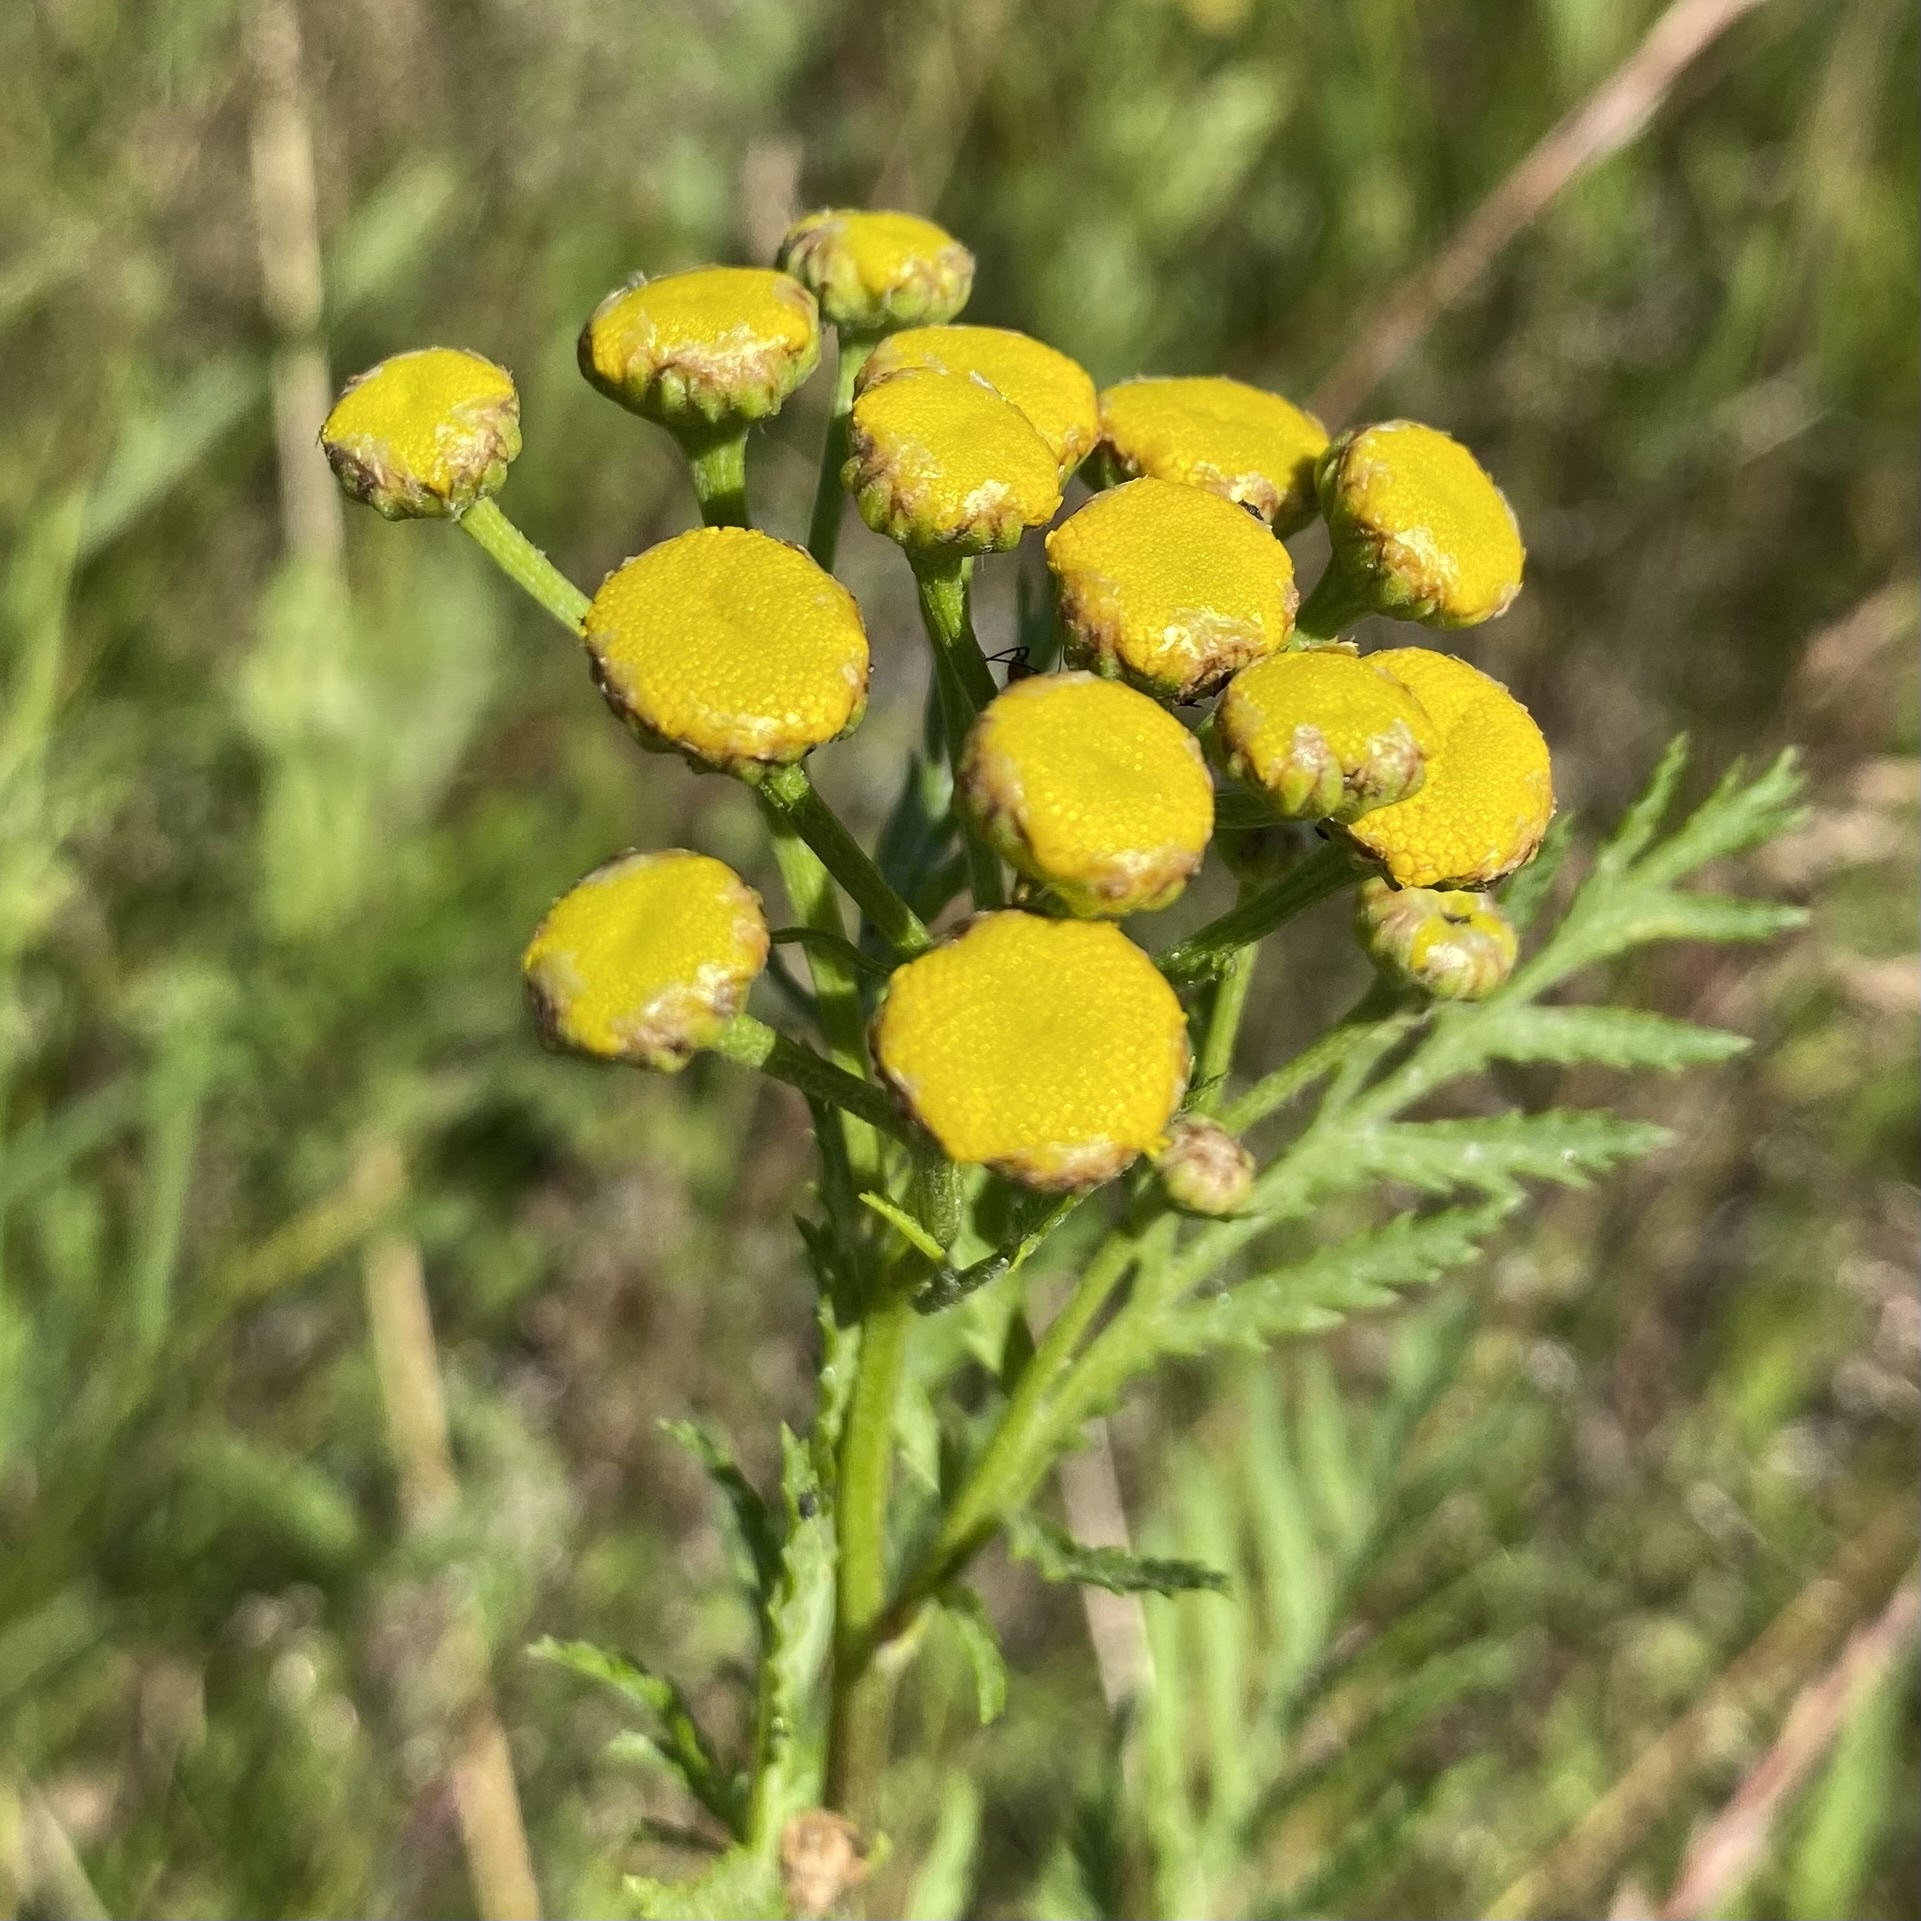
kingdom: Plantae
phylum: Tracheophyta
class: Magnoliopsida
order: Asterales
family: Asteraceae
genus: Tanacetum
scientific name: Tanacetum vulgare
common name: Common tansy
